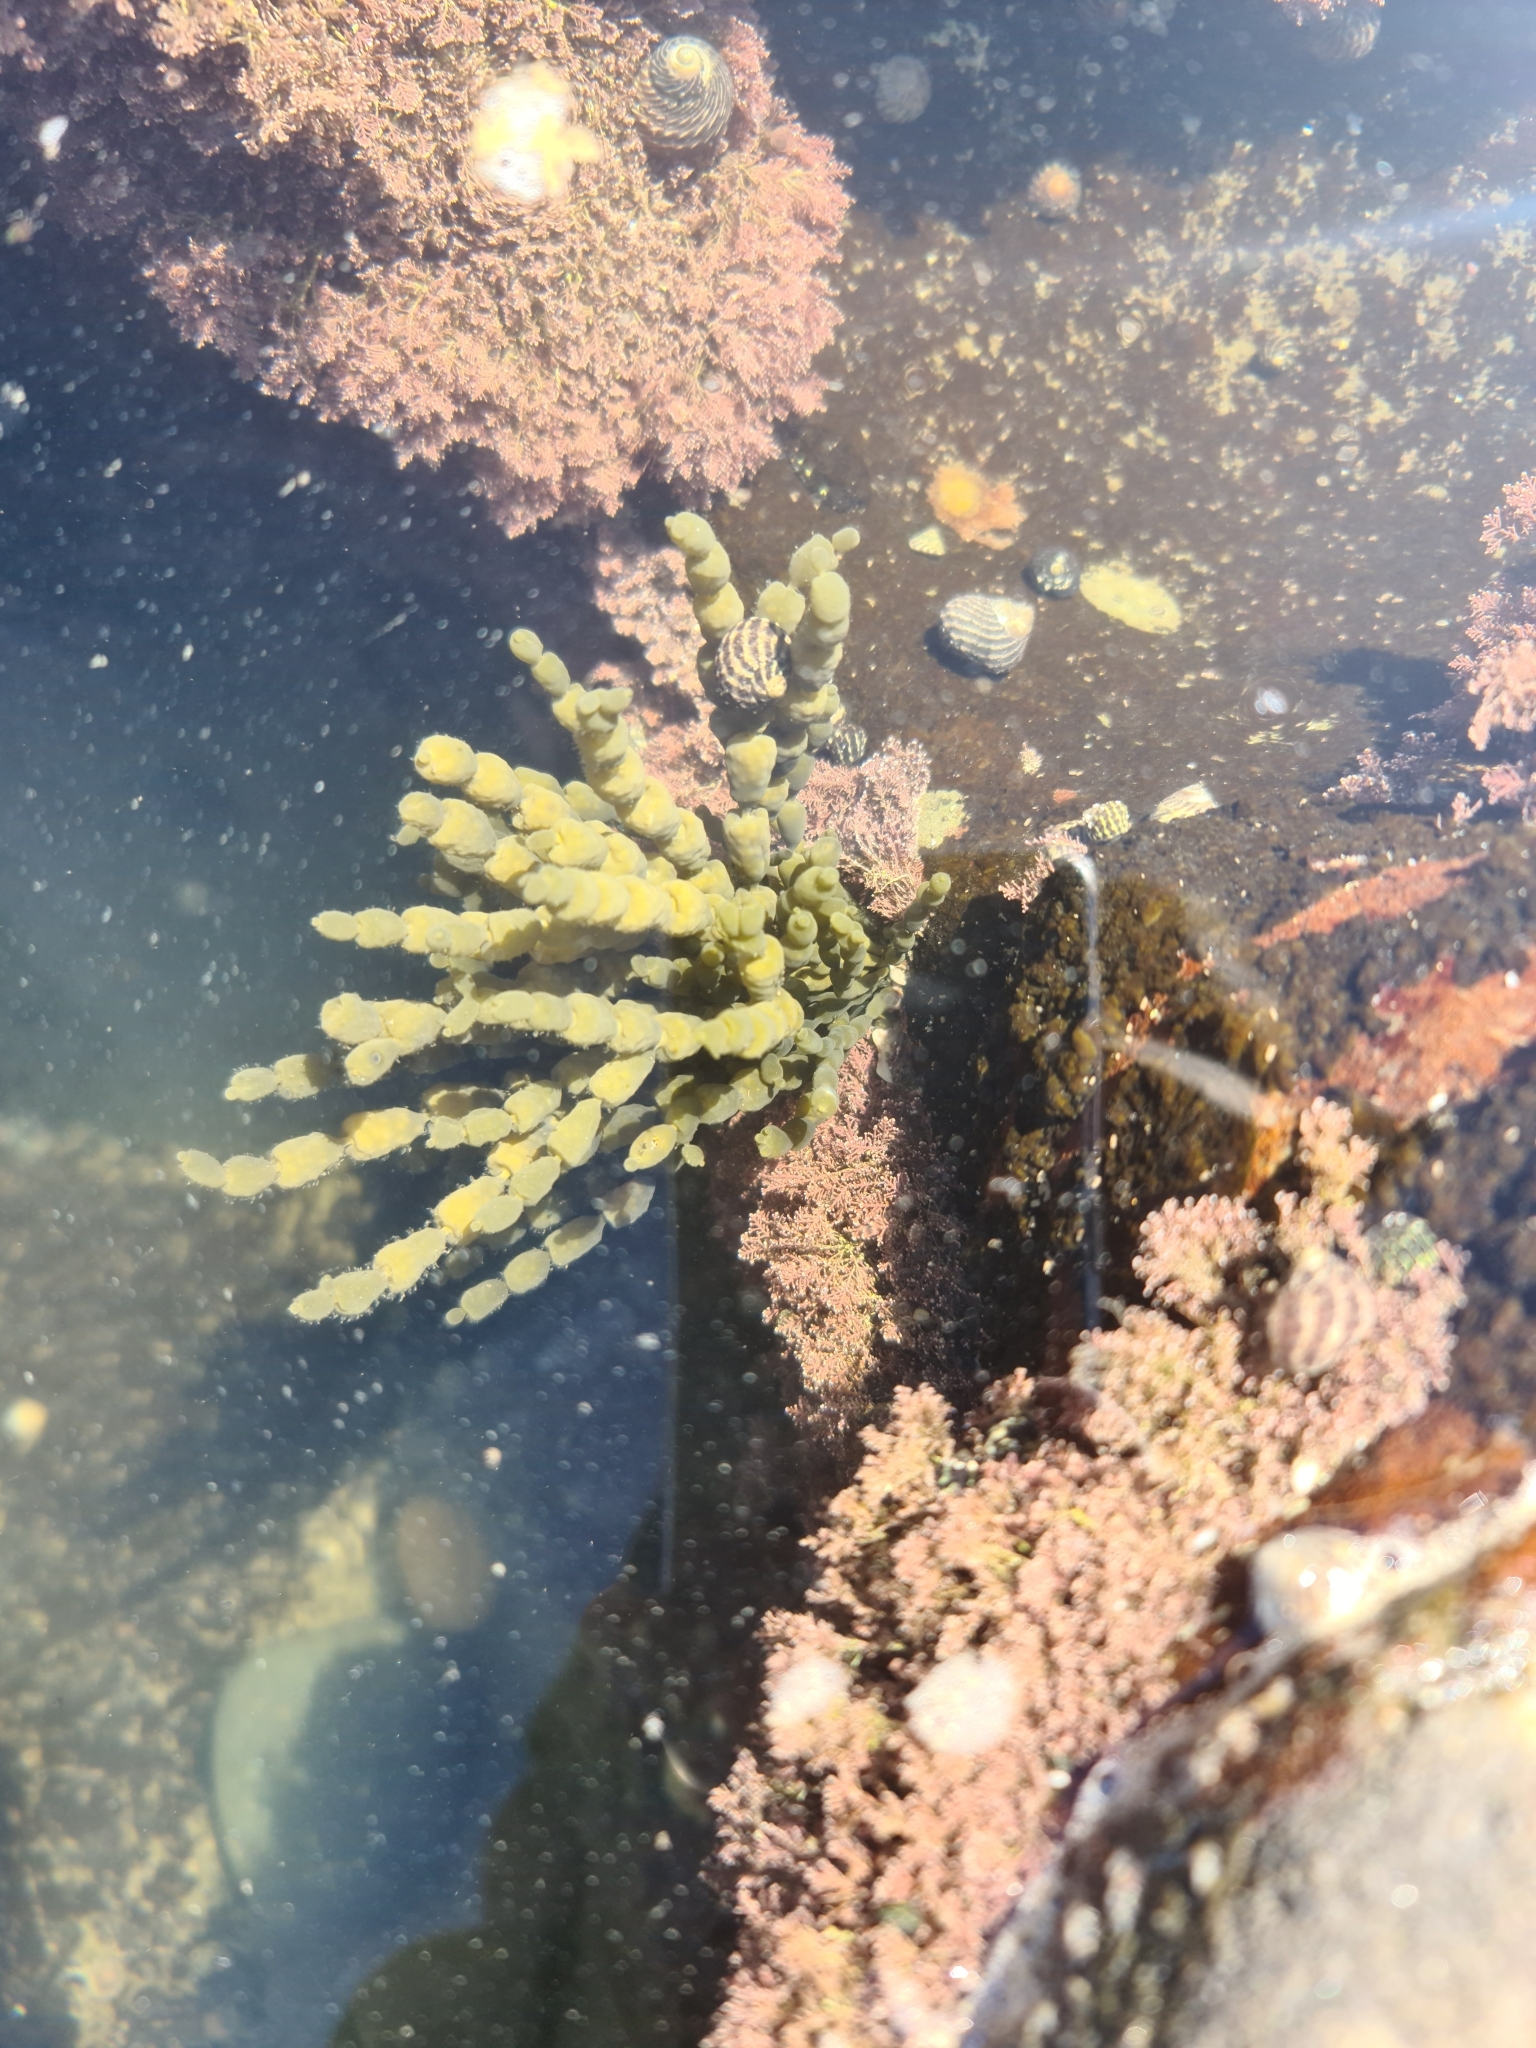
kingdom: Chromista
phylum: Ochrophyta
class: Phaeophyceae
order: Fucales
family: Hormosiraceae
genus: Hormosira
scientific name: Hormosira banksii
